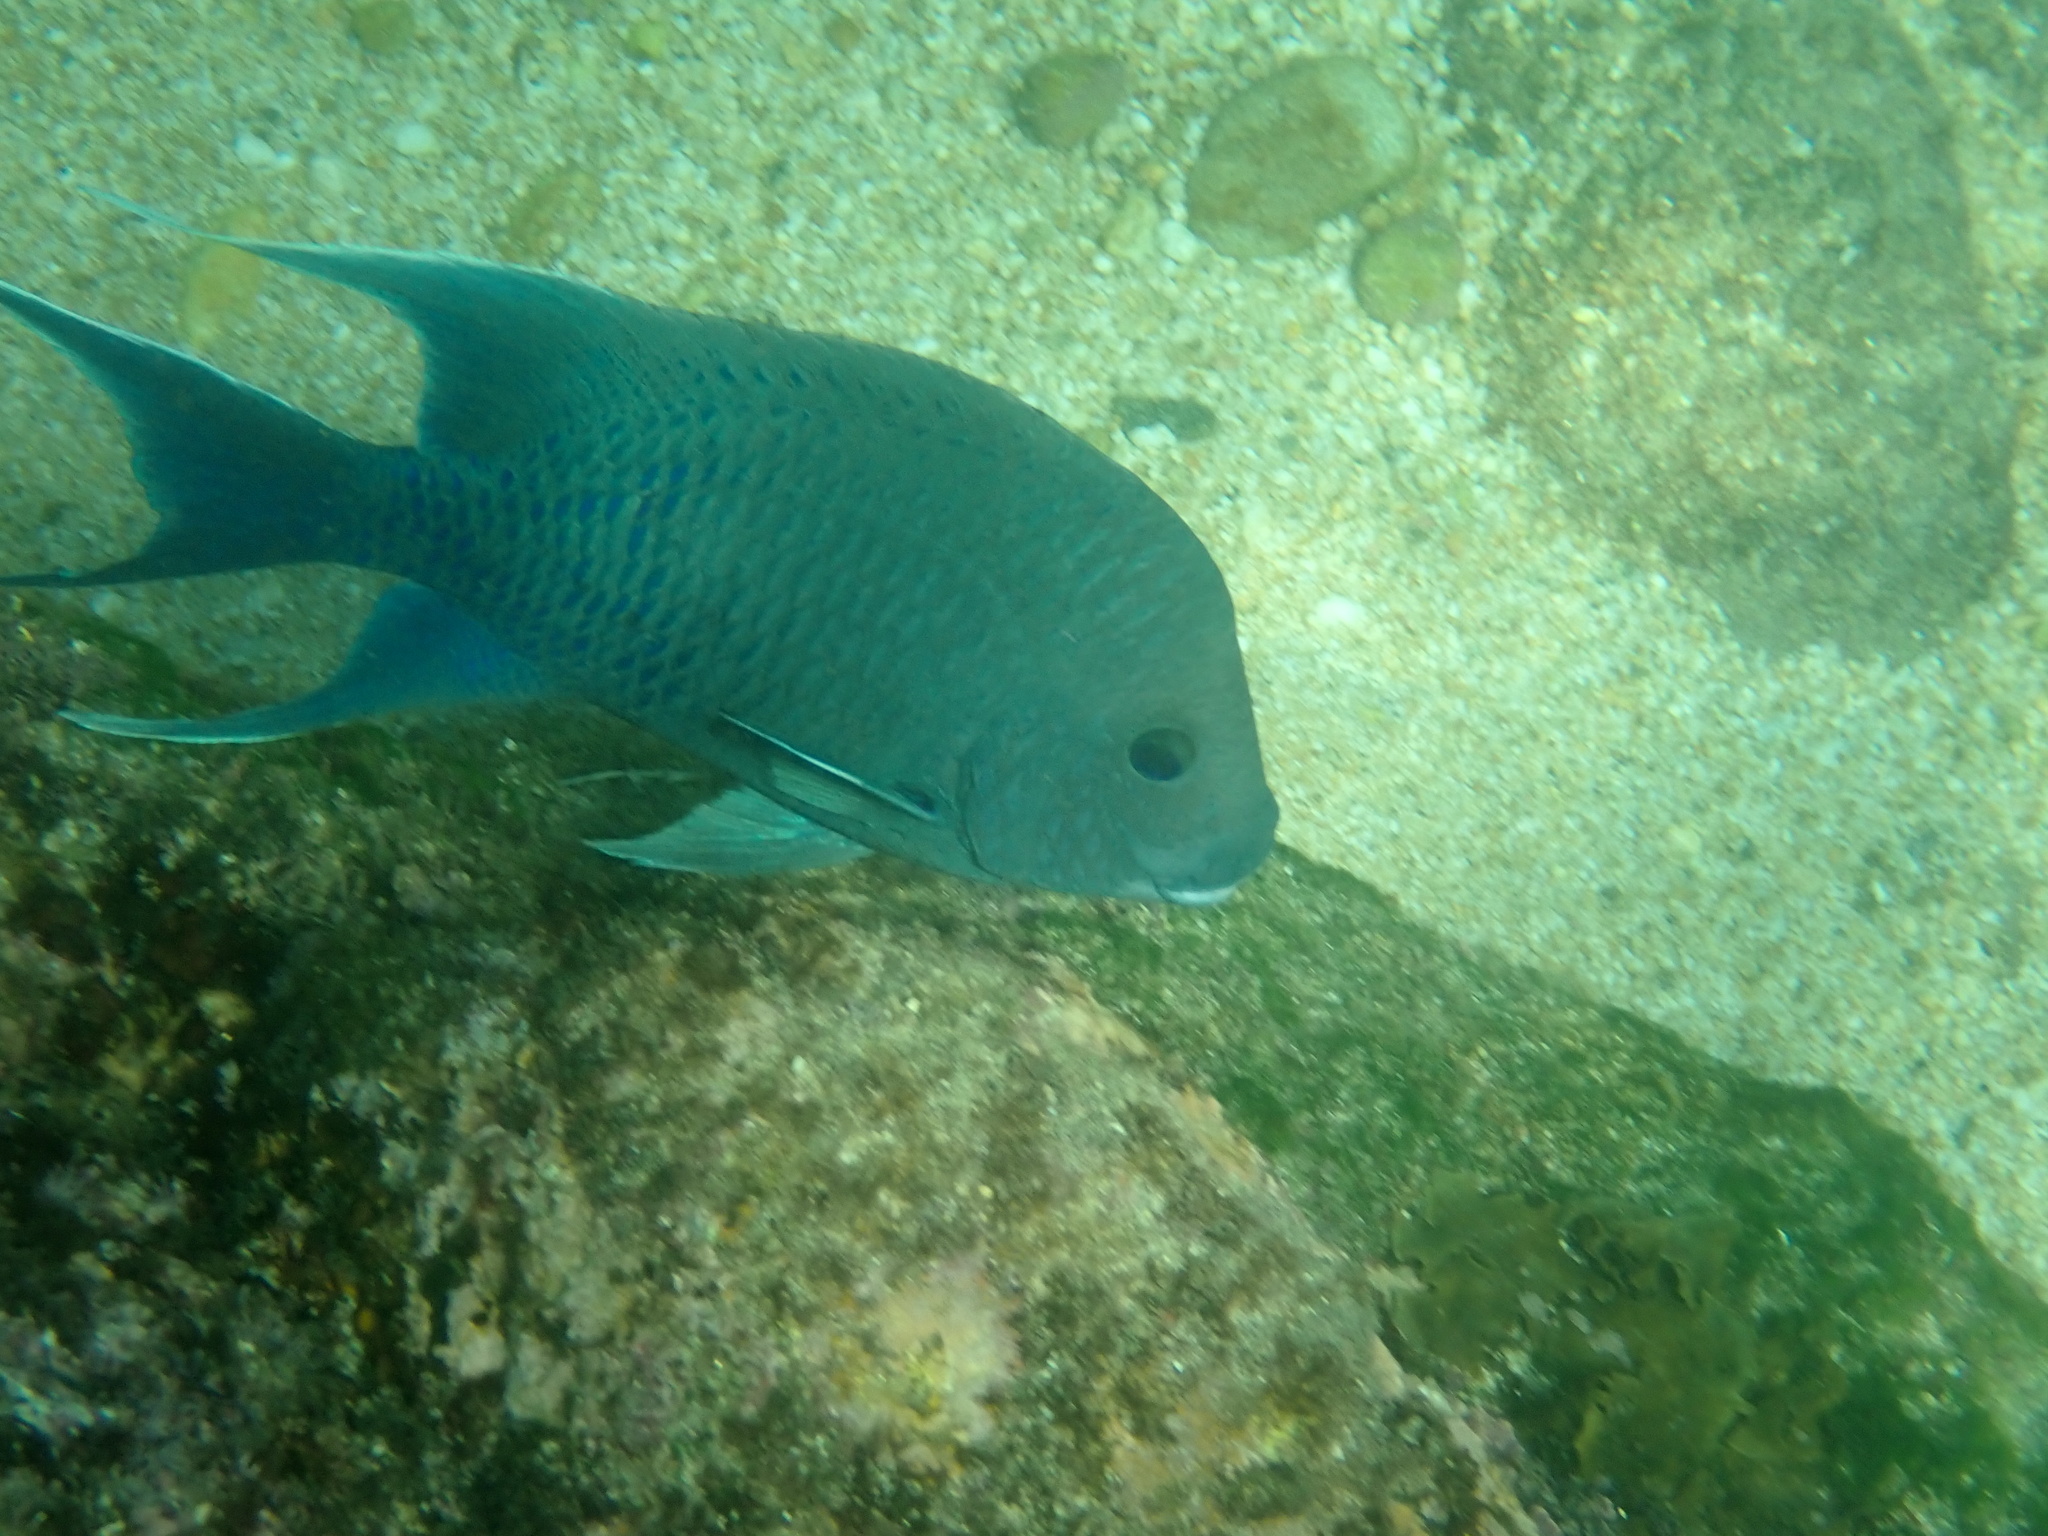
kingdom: Animalia
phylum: Chordata
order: Perciformes
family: Pomacentridae
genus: Microspathodon
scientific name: Microspathodon dorsalis
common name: Giant damselfish
